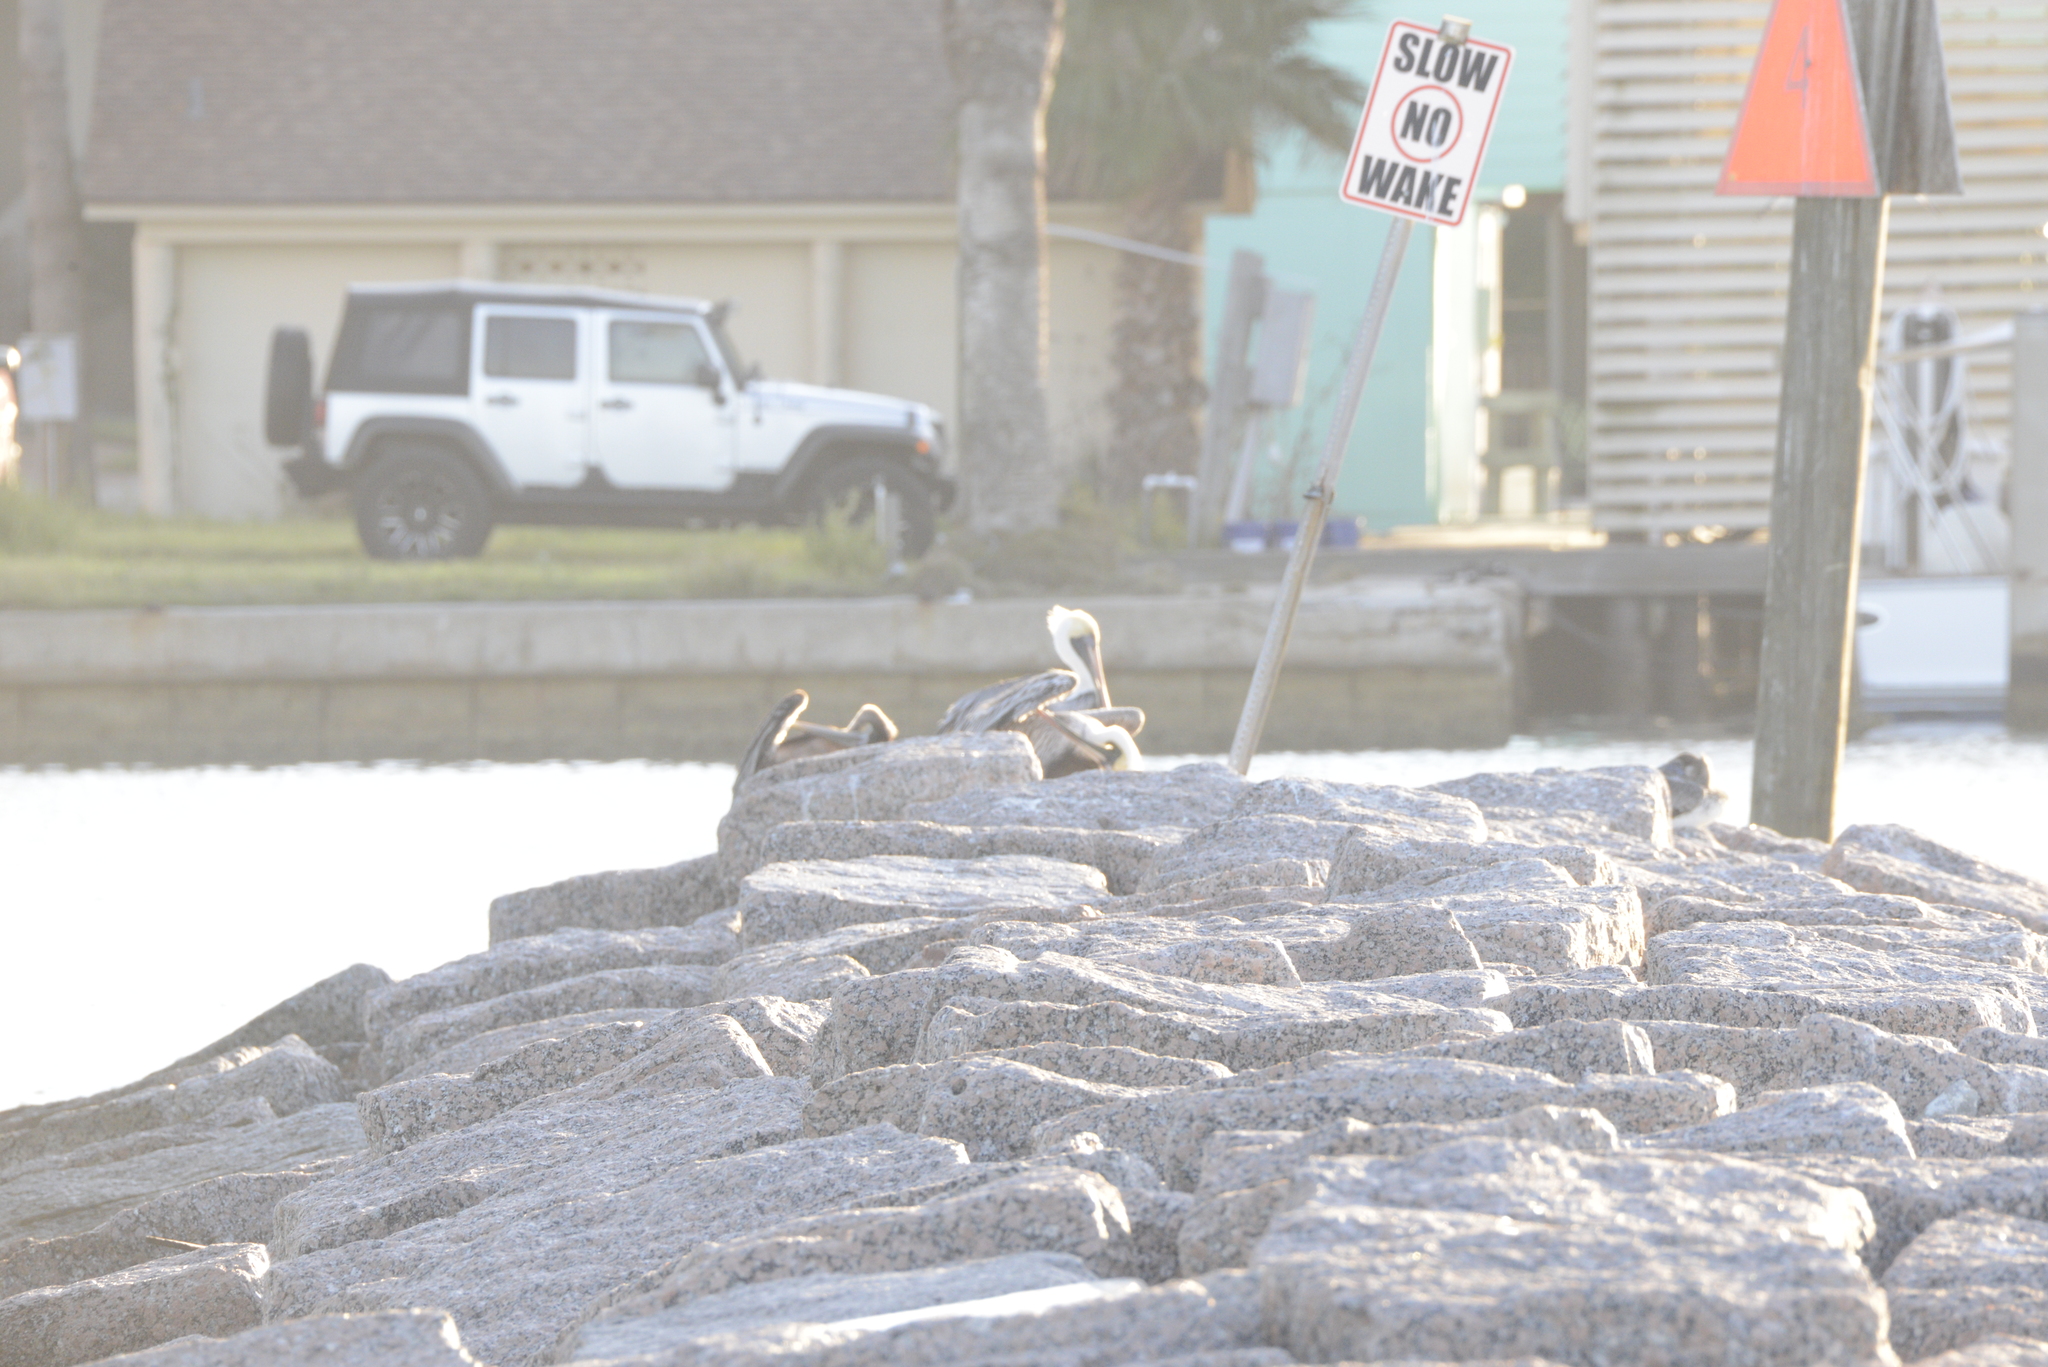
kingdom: Animalia
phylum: Chordata
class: Aves
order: Pelecaniformes
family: Pelecanidae
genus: Pelecanus
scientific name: Pelecanus occidentalis
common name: Brown pelican
